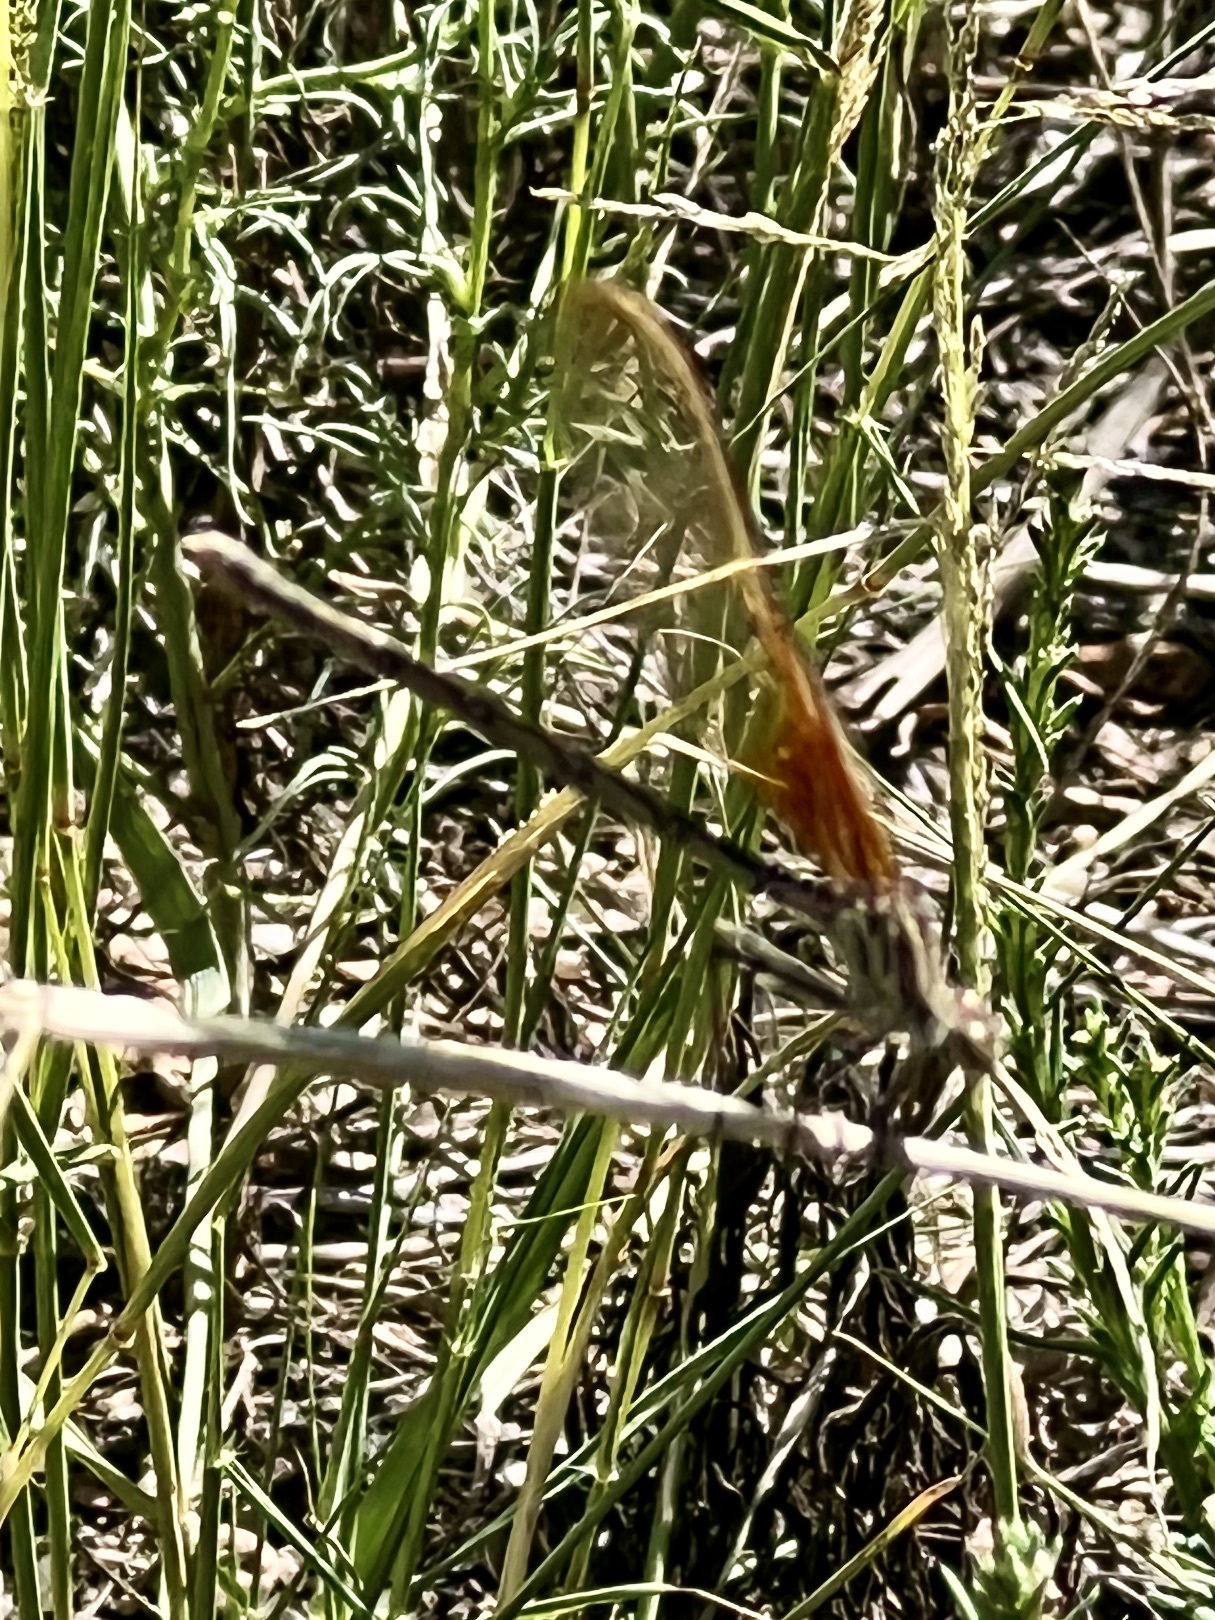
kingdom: Animalia
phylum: Arthropoda
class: Insecta
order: Odonata
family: Calopterygidae
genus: Hetaerina
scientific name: Hetaerina americana
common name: American rubyspot
